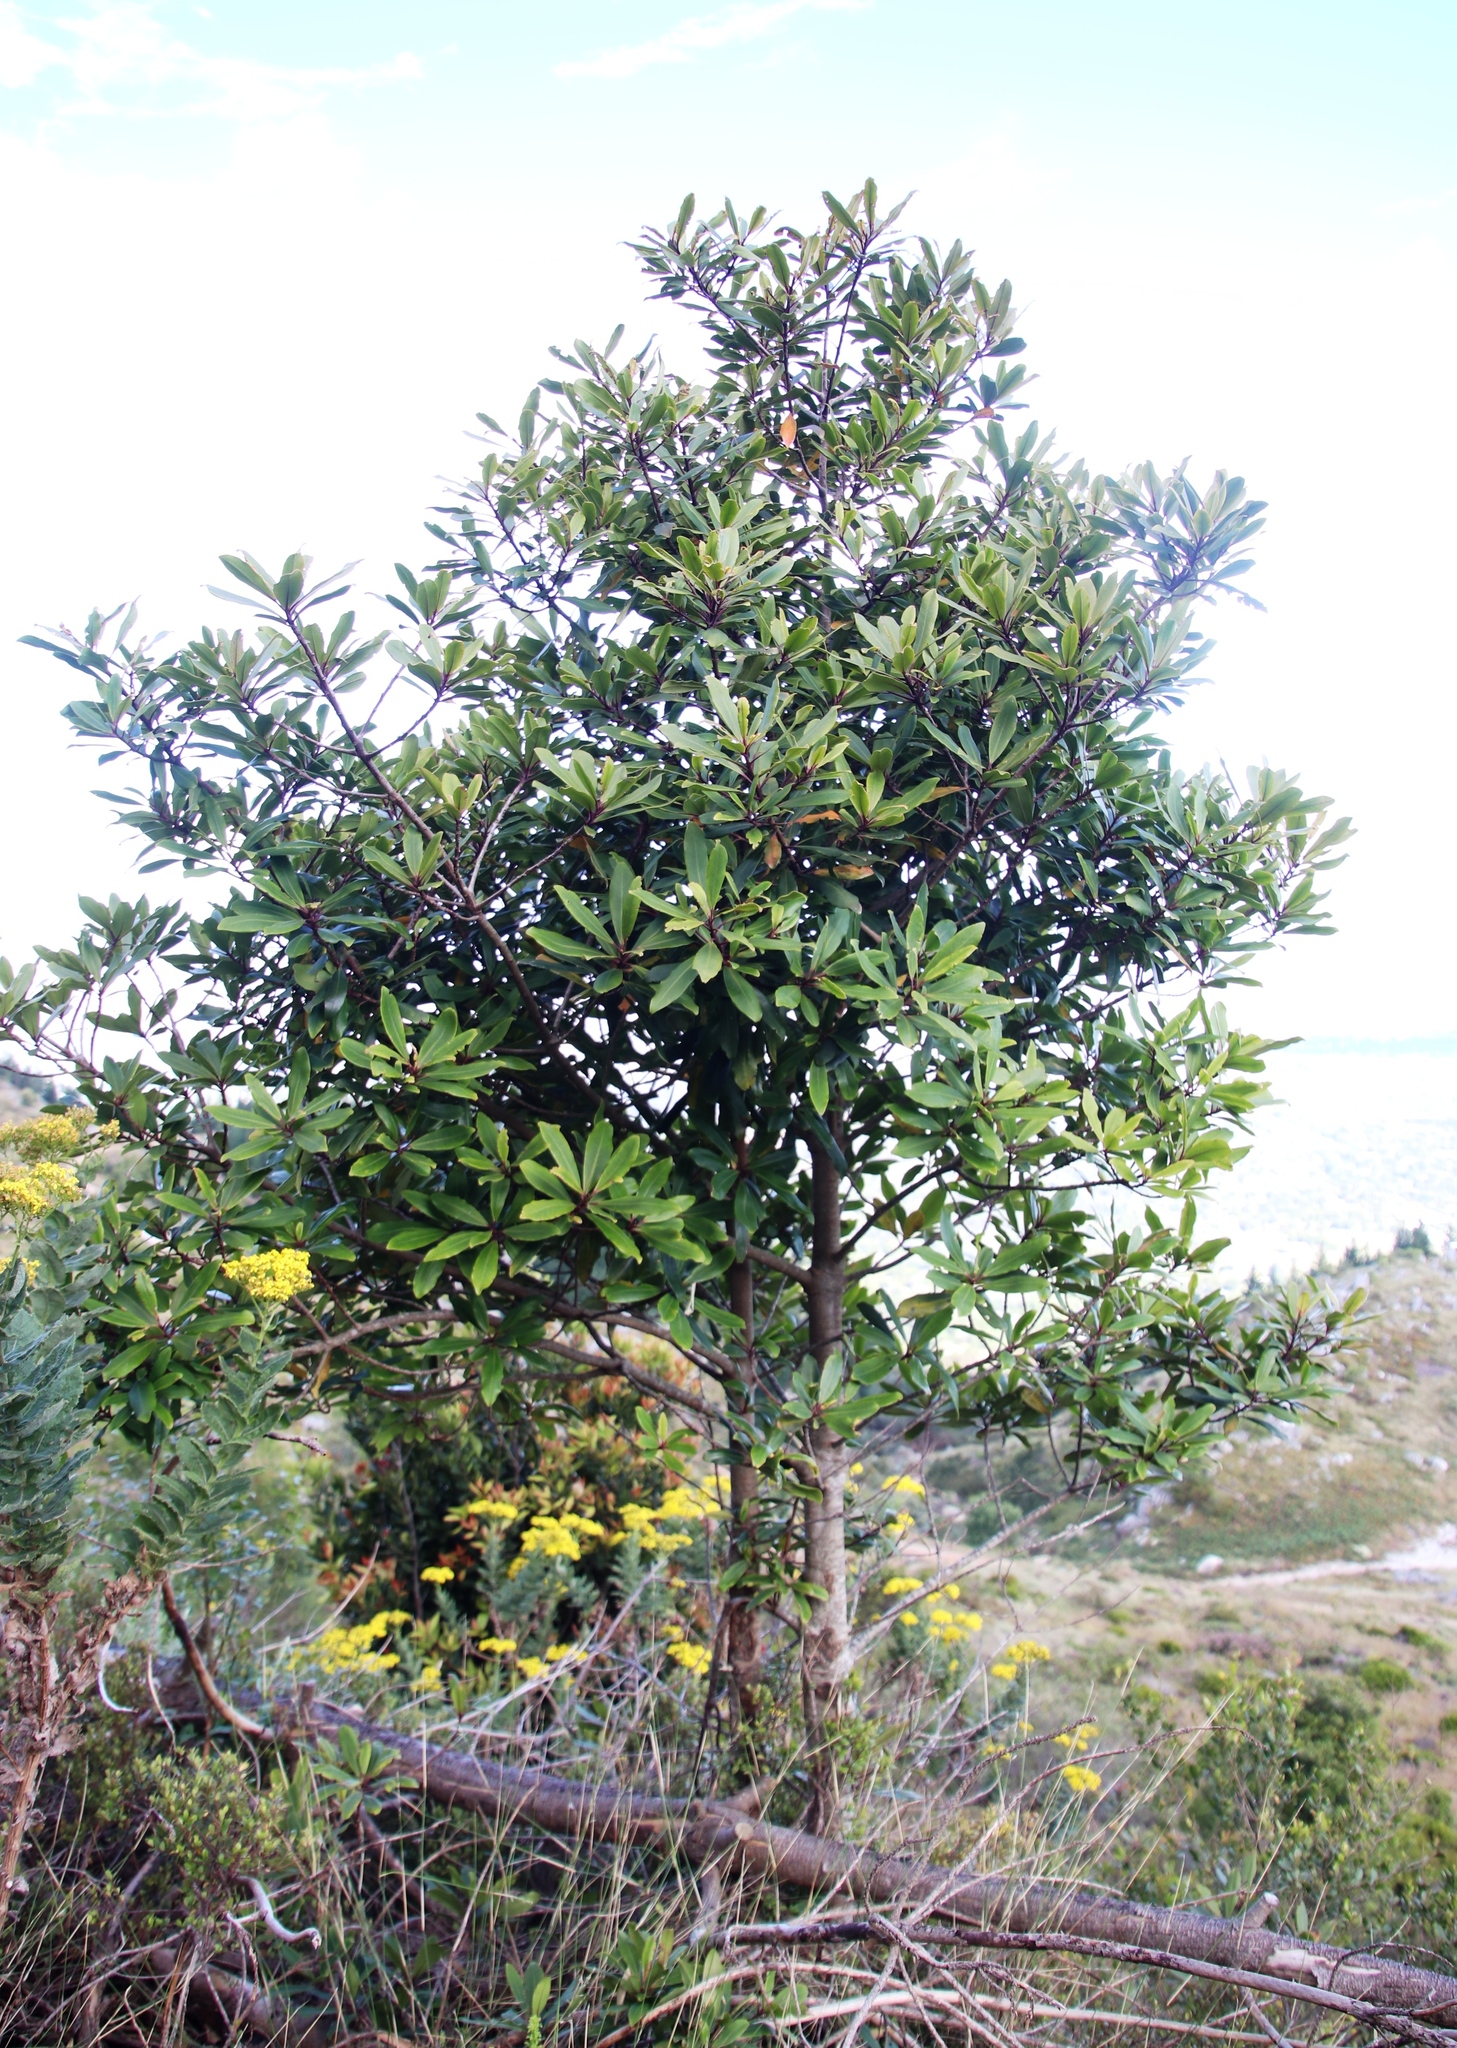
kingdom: Plantae
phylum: Tracheophyta
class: Magnoliopsida
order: Ericales
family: Primulaceae
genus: Myrsine
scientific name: Myrsine melanophloeos
